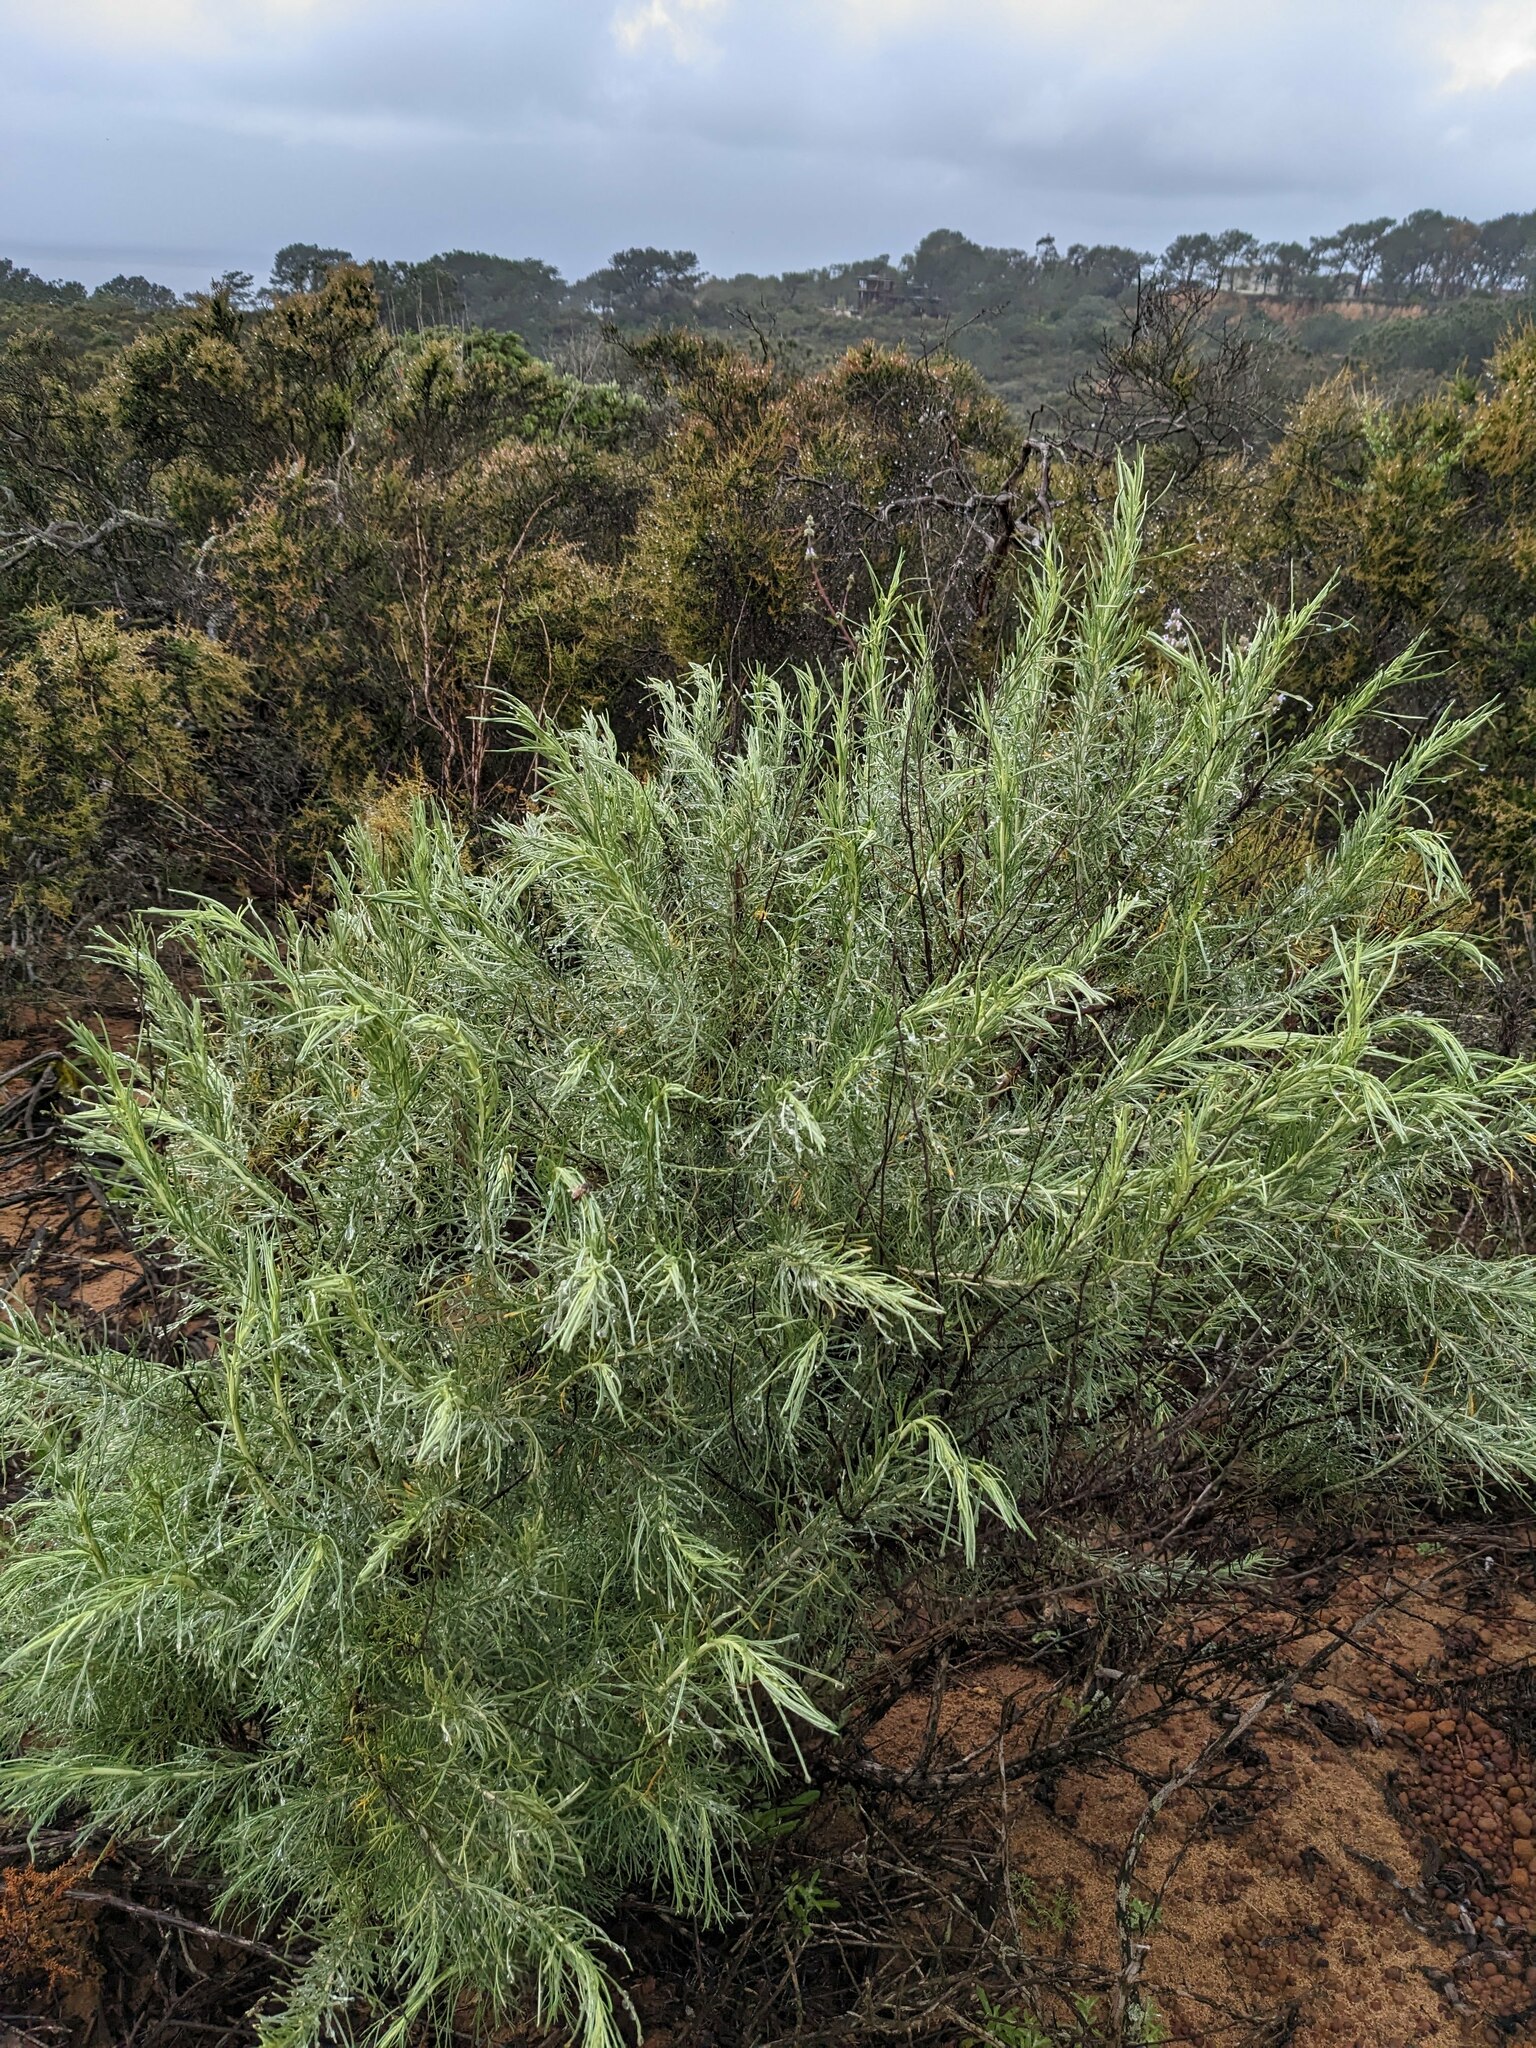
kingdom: Plantae
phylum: Tracheophyta
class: Magnoliopsida
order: Asterales
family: Asteraceae
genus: Artemisia
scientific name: Artemisia californica
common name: California sagebrush
